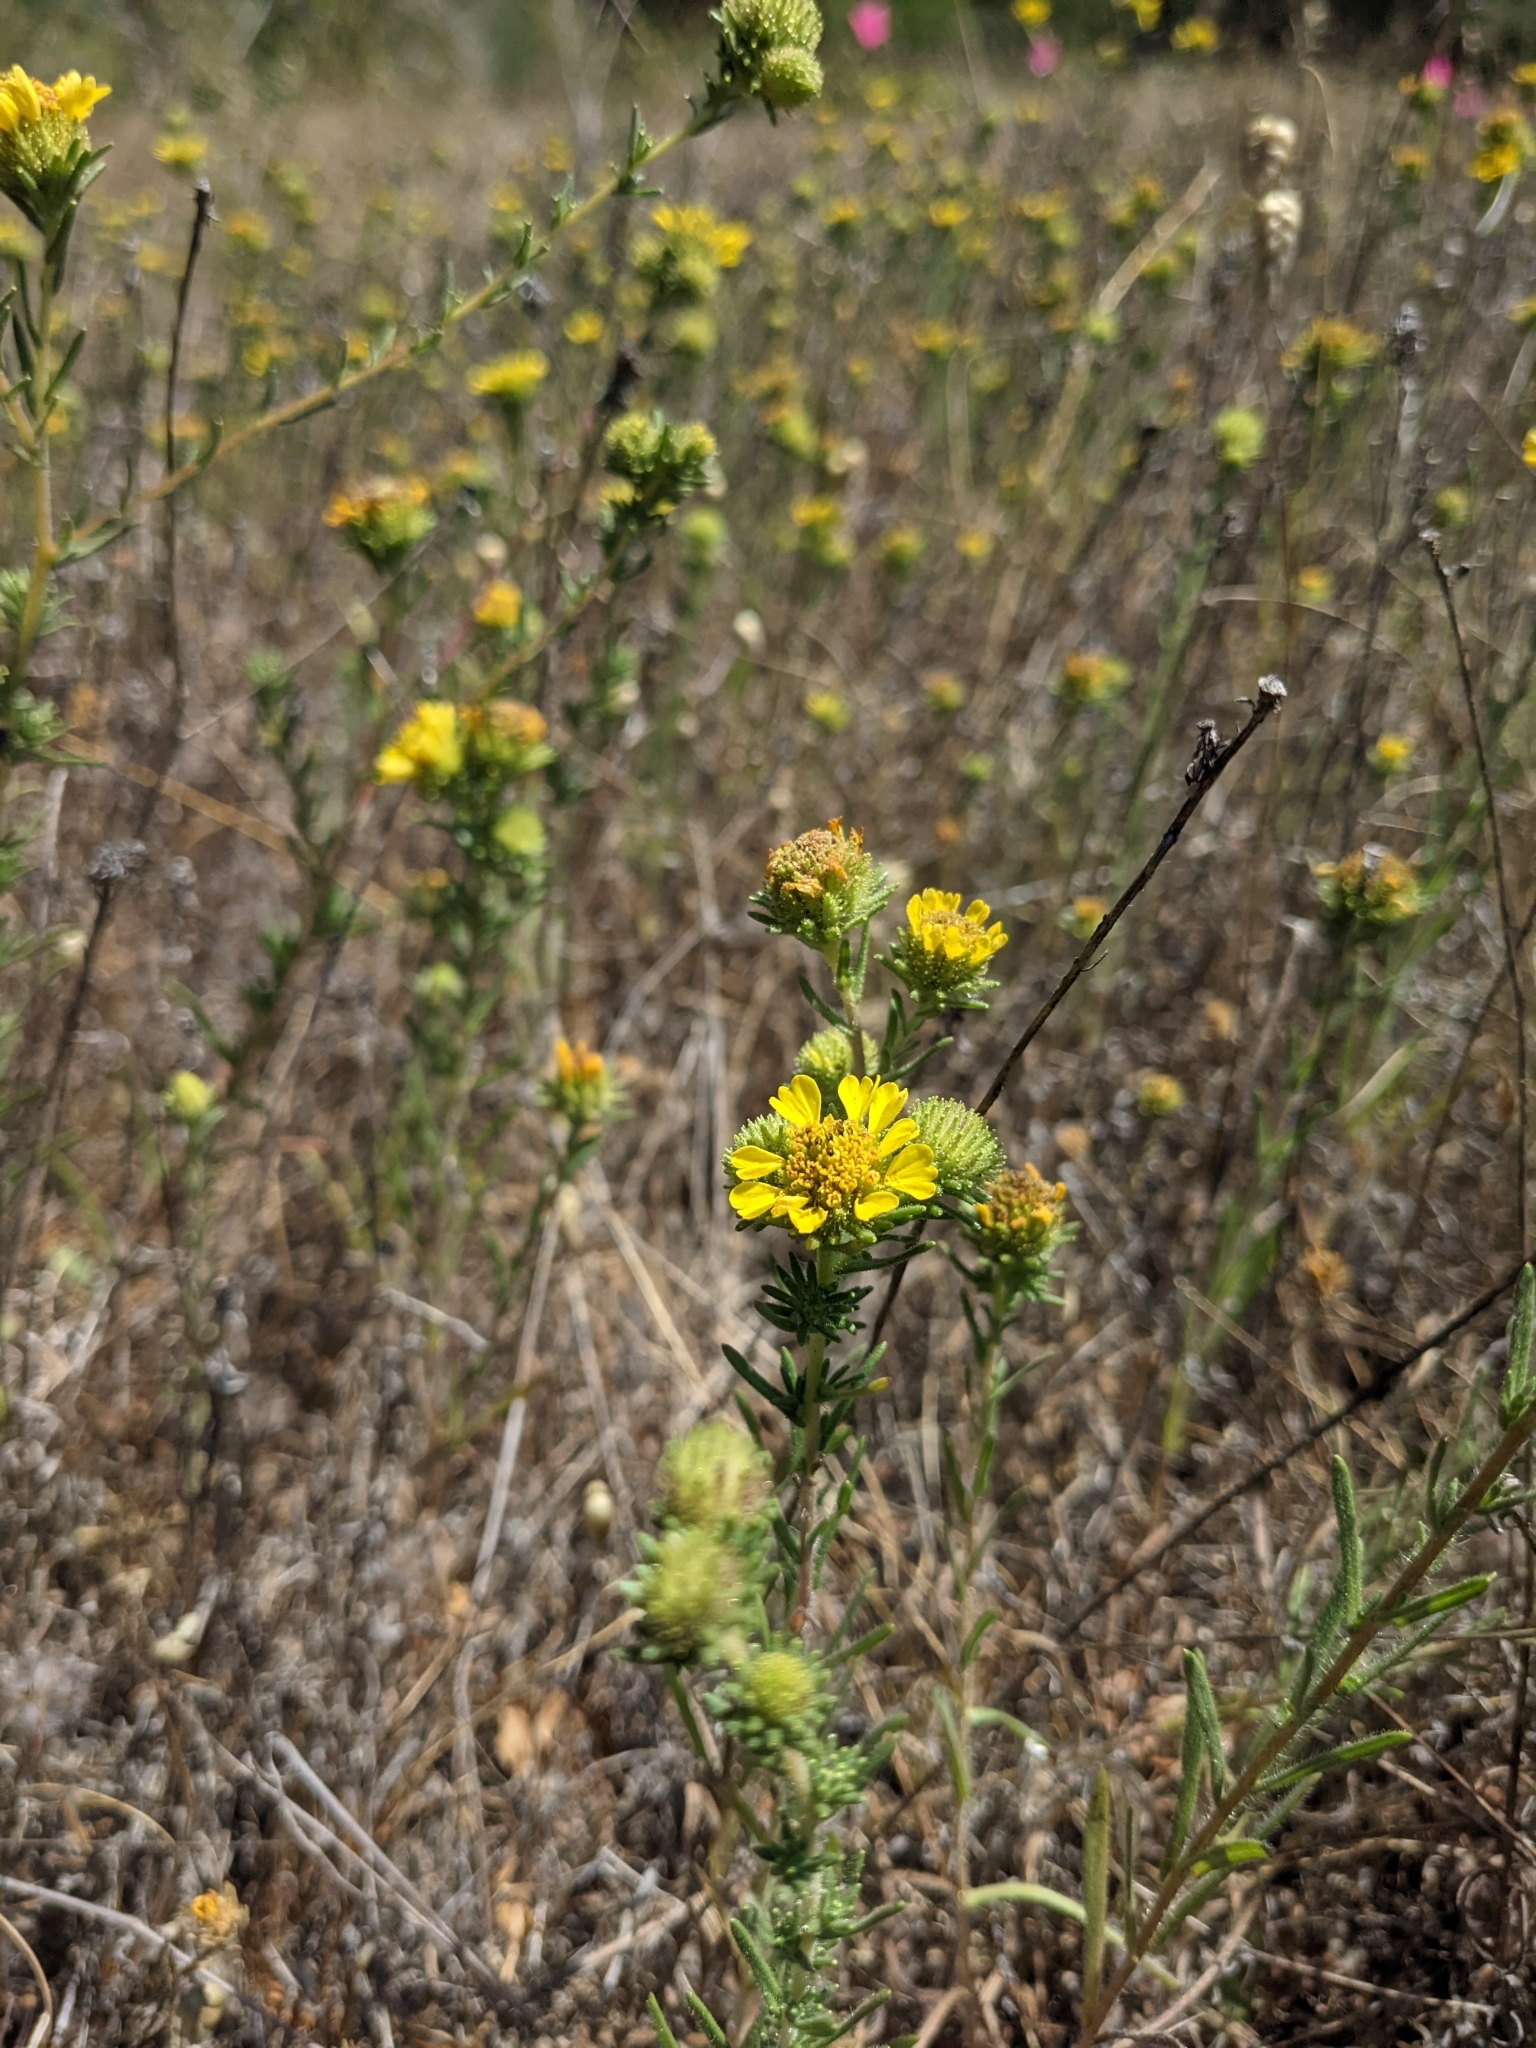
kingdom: Plantae
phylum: Tracheophyta
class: Magnoliopsida
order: Asterales
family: Asteraceae
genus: Holocarpha
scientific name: Holocarpha macradenia
